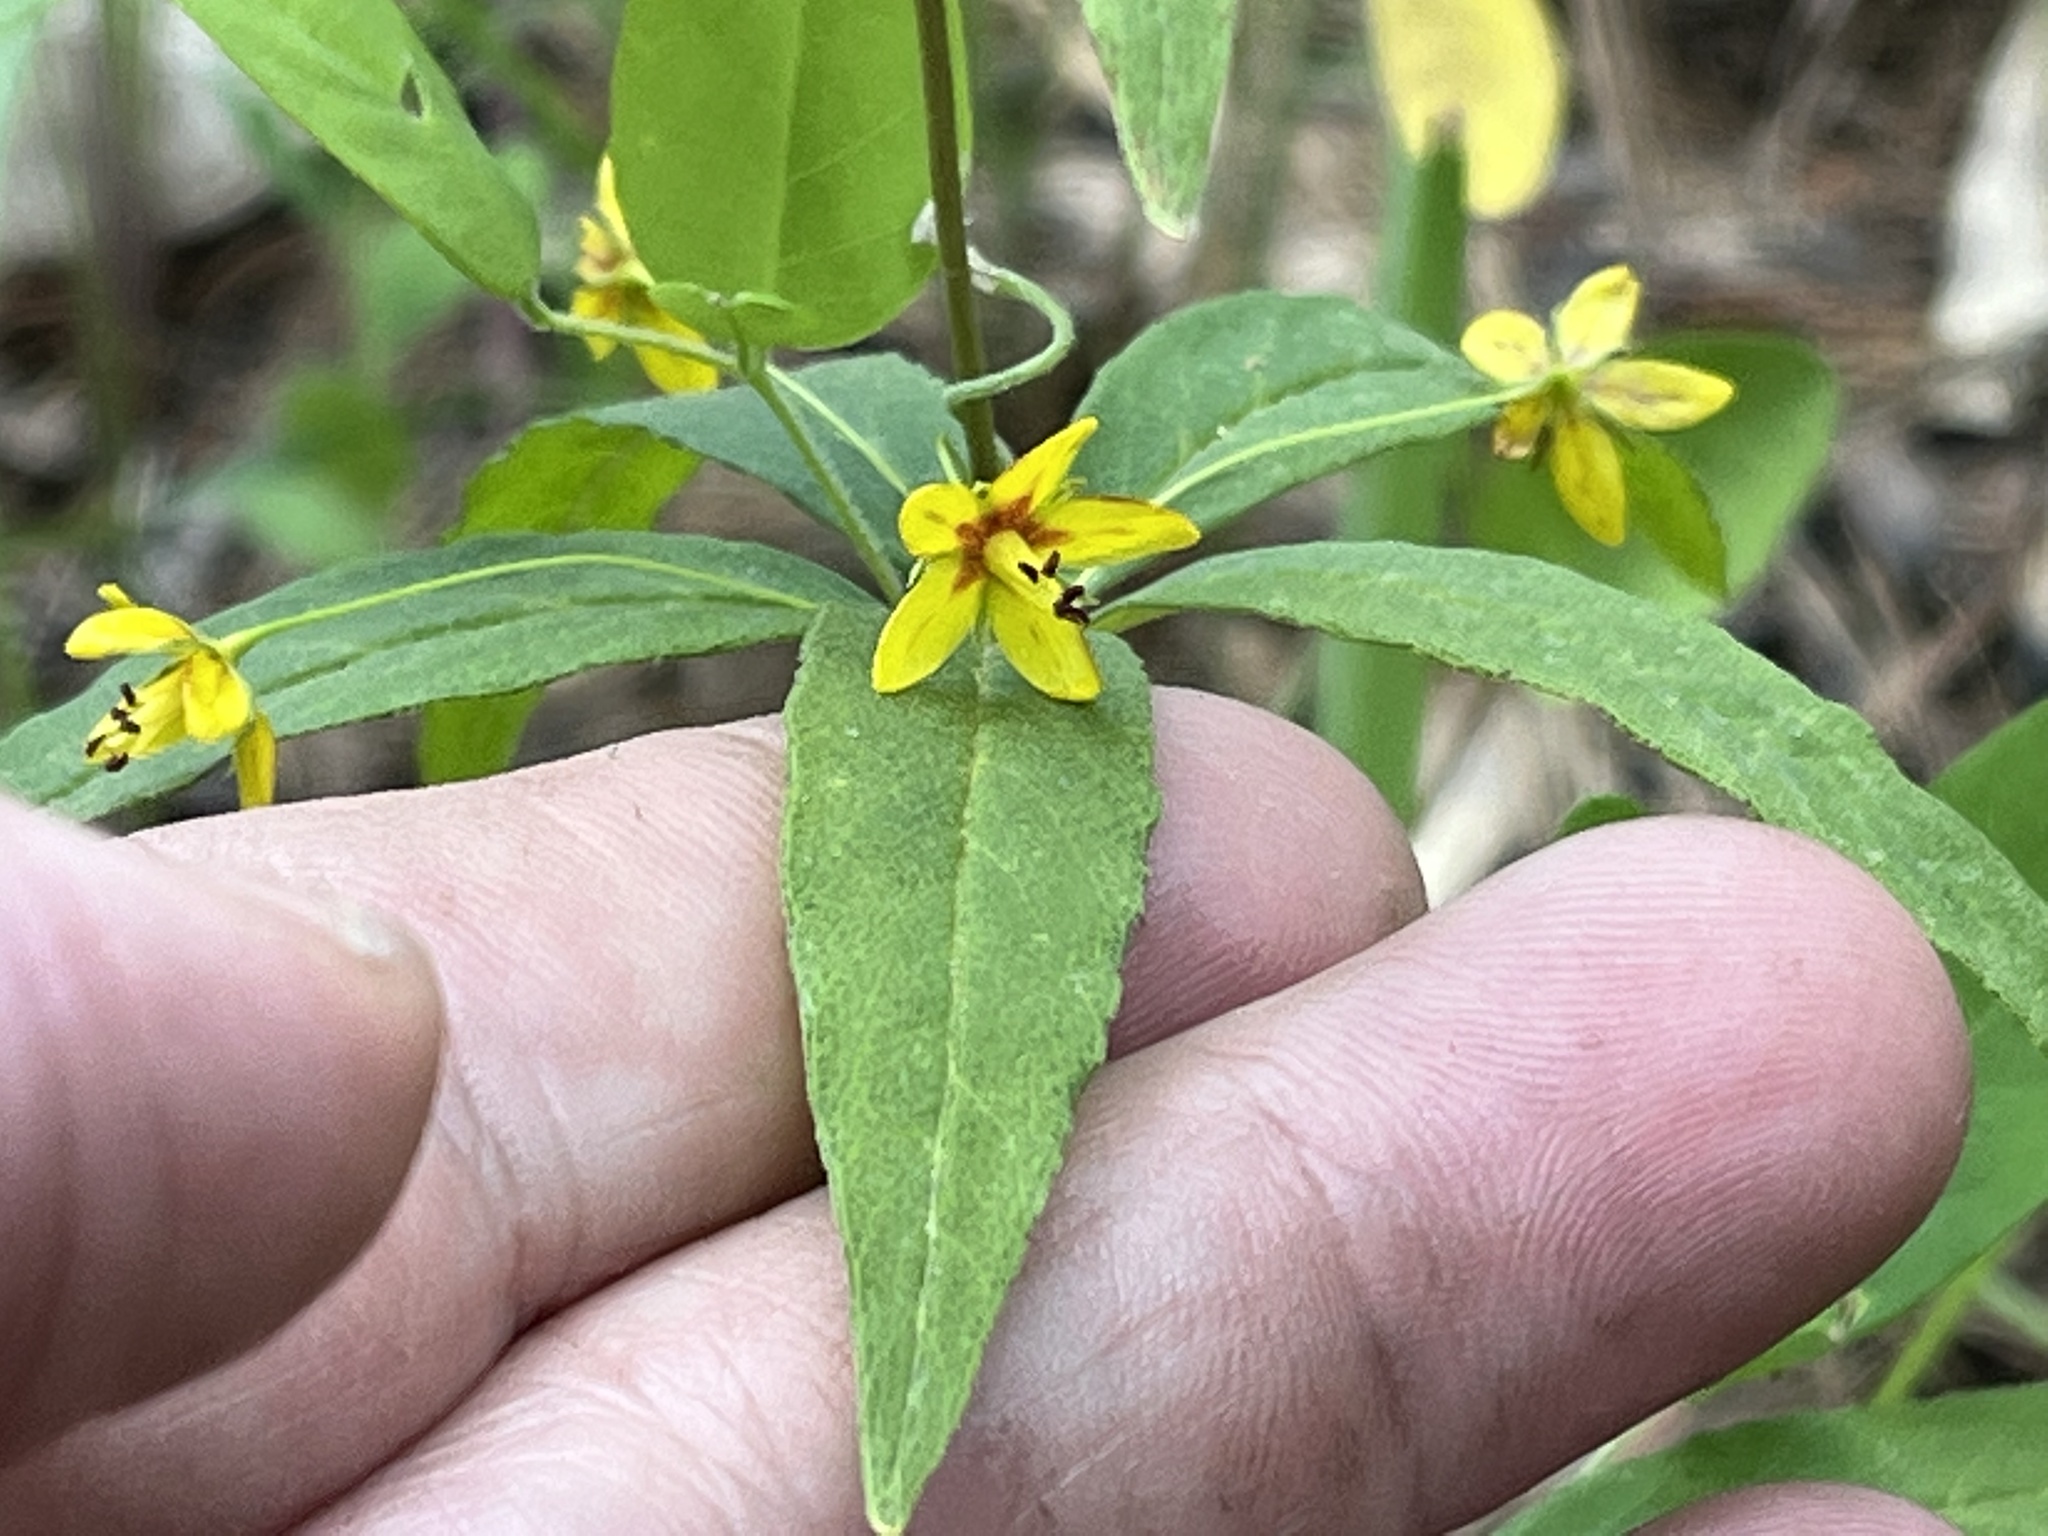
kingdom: Plantae
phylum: Tracheophyta
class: Magnoliopsida
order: Ericales
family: Primulaceae
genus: Lysimachia
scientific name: Lysimachia quadrifolia
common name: Whorled loosestrife
